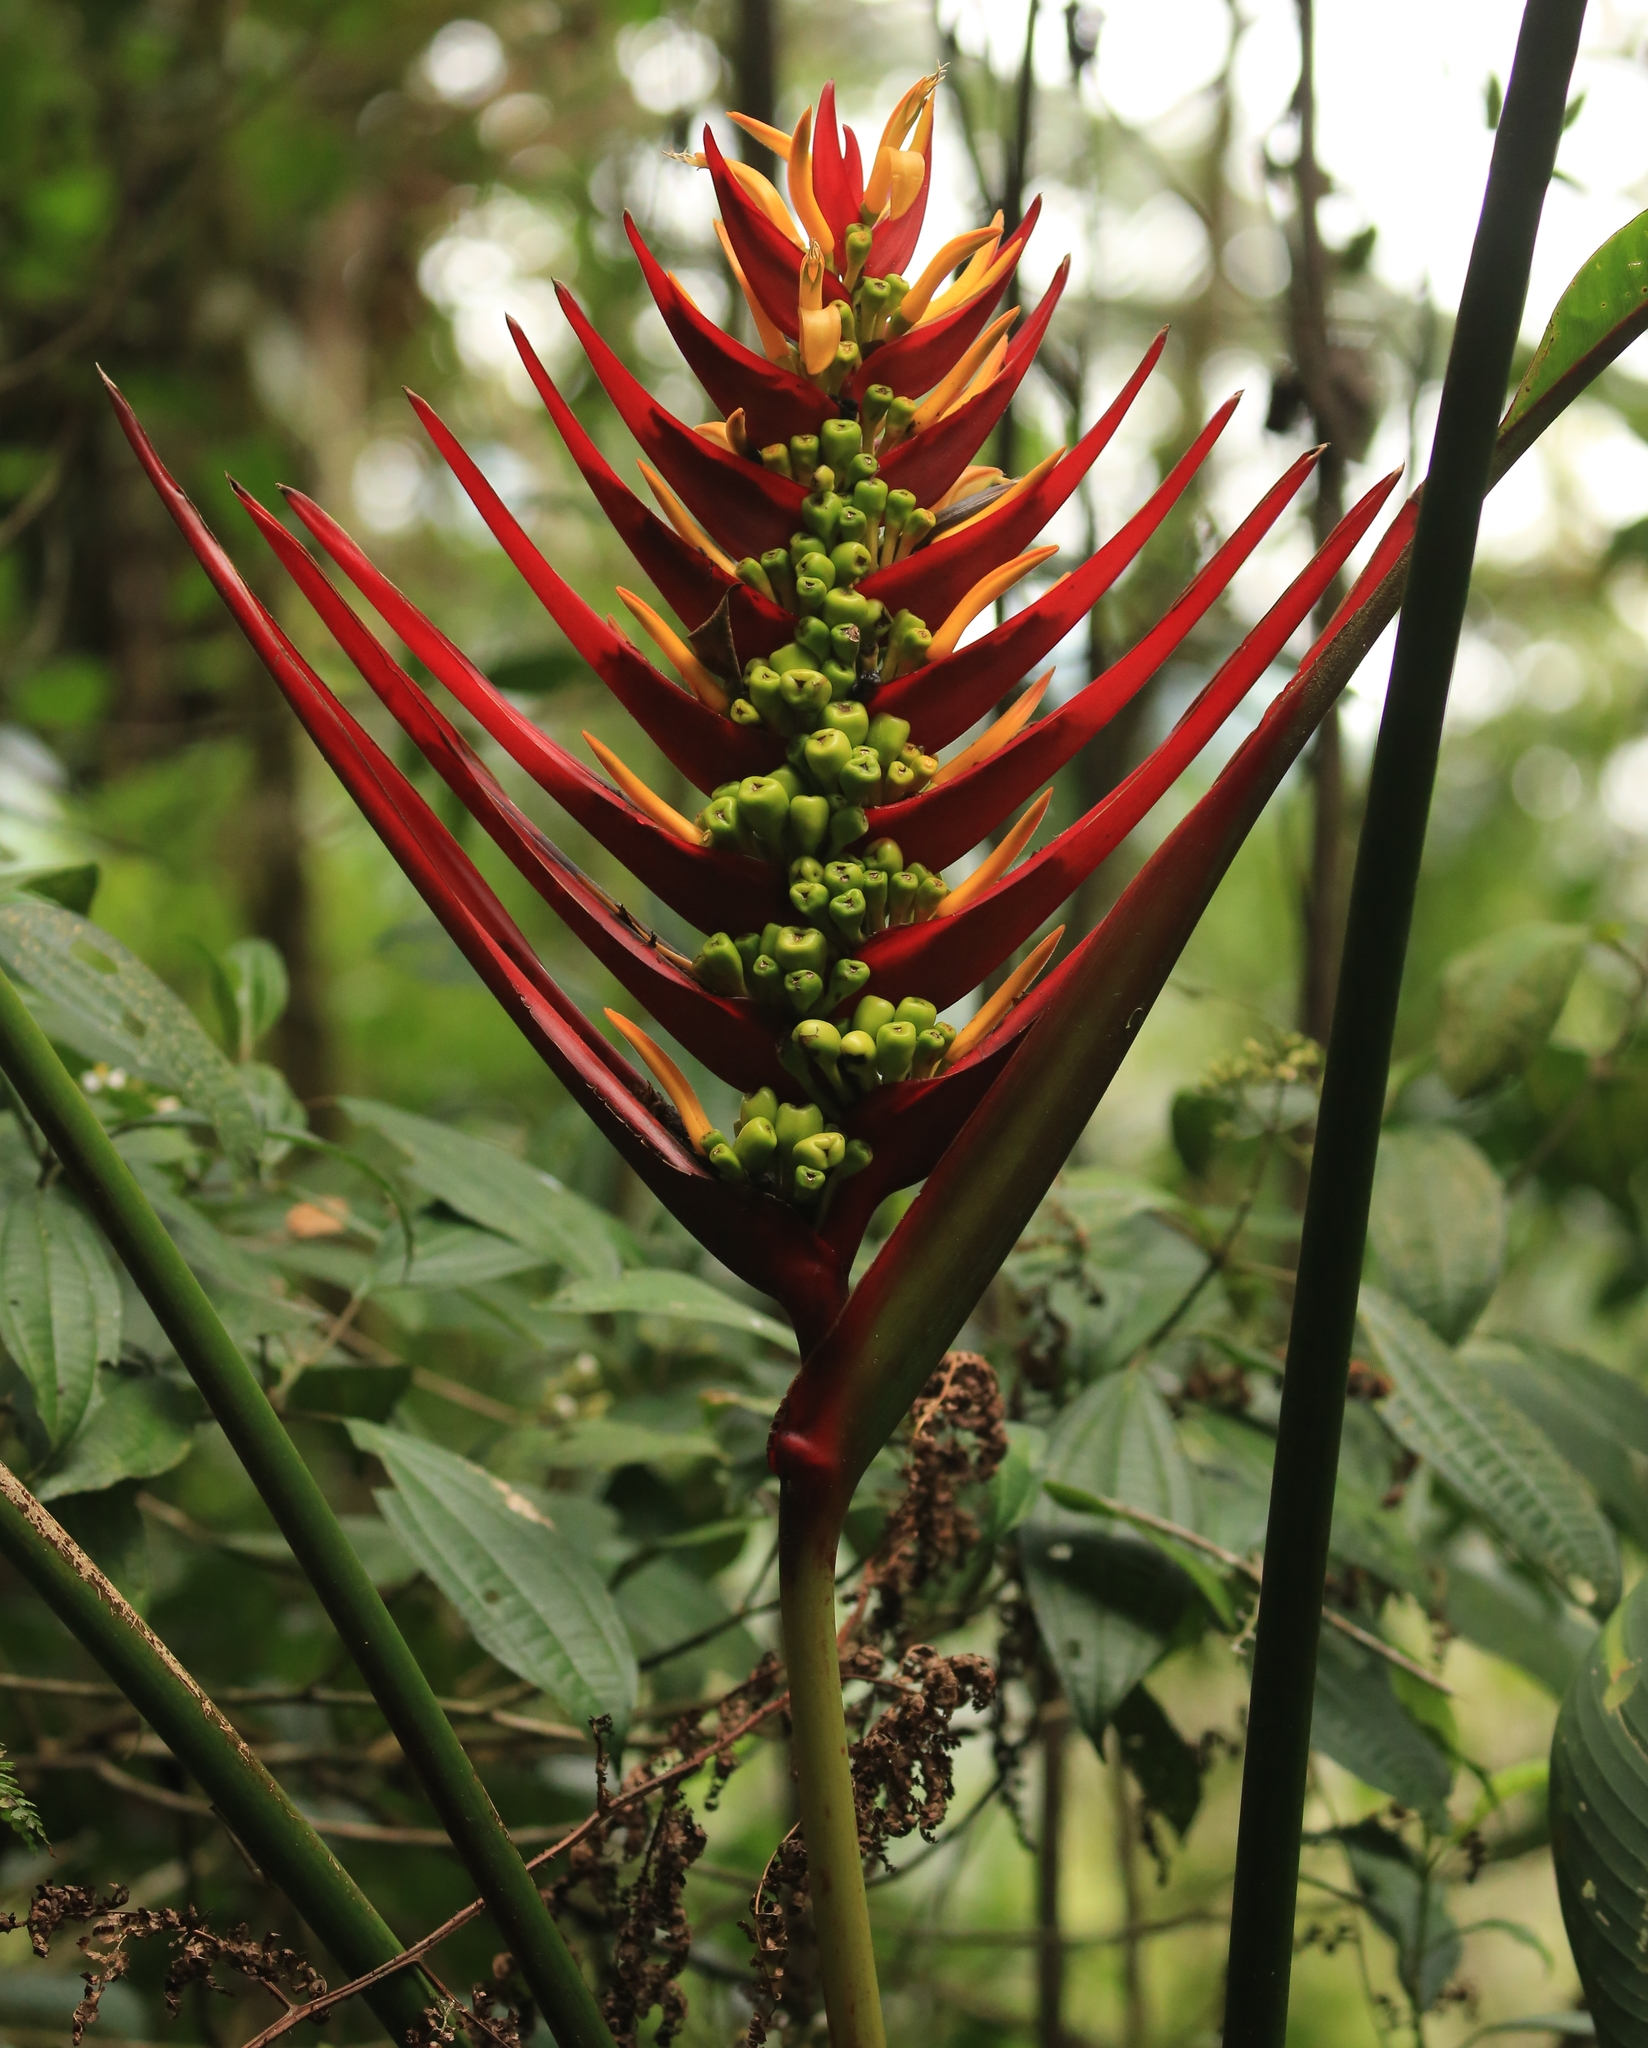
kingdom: Plantae
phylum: Tracheophyta
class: Liliopsida
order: Zingiberales
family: Heliconiaceae
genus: Heliconia
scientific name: Heliconia adflexa
